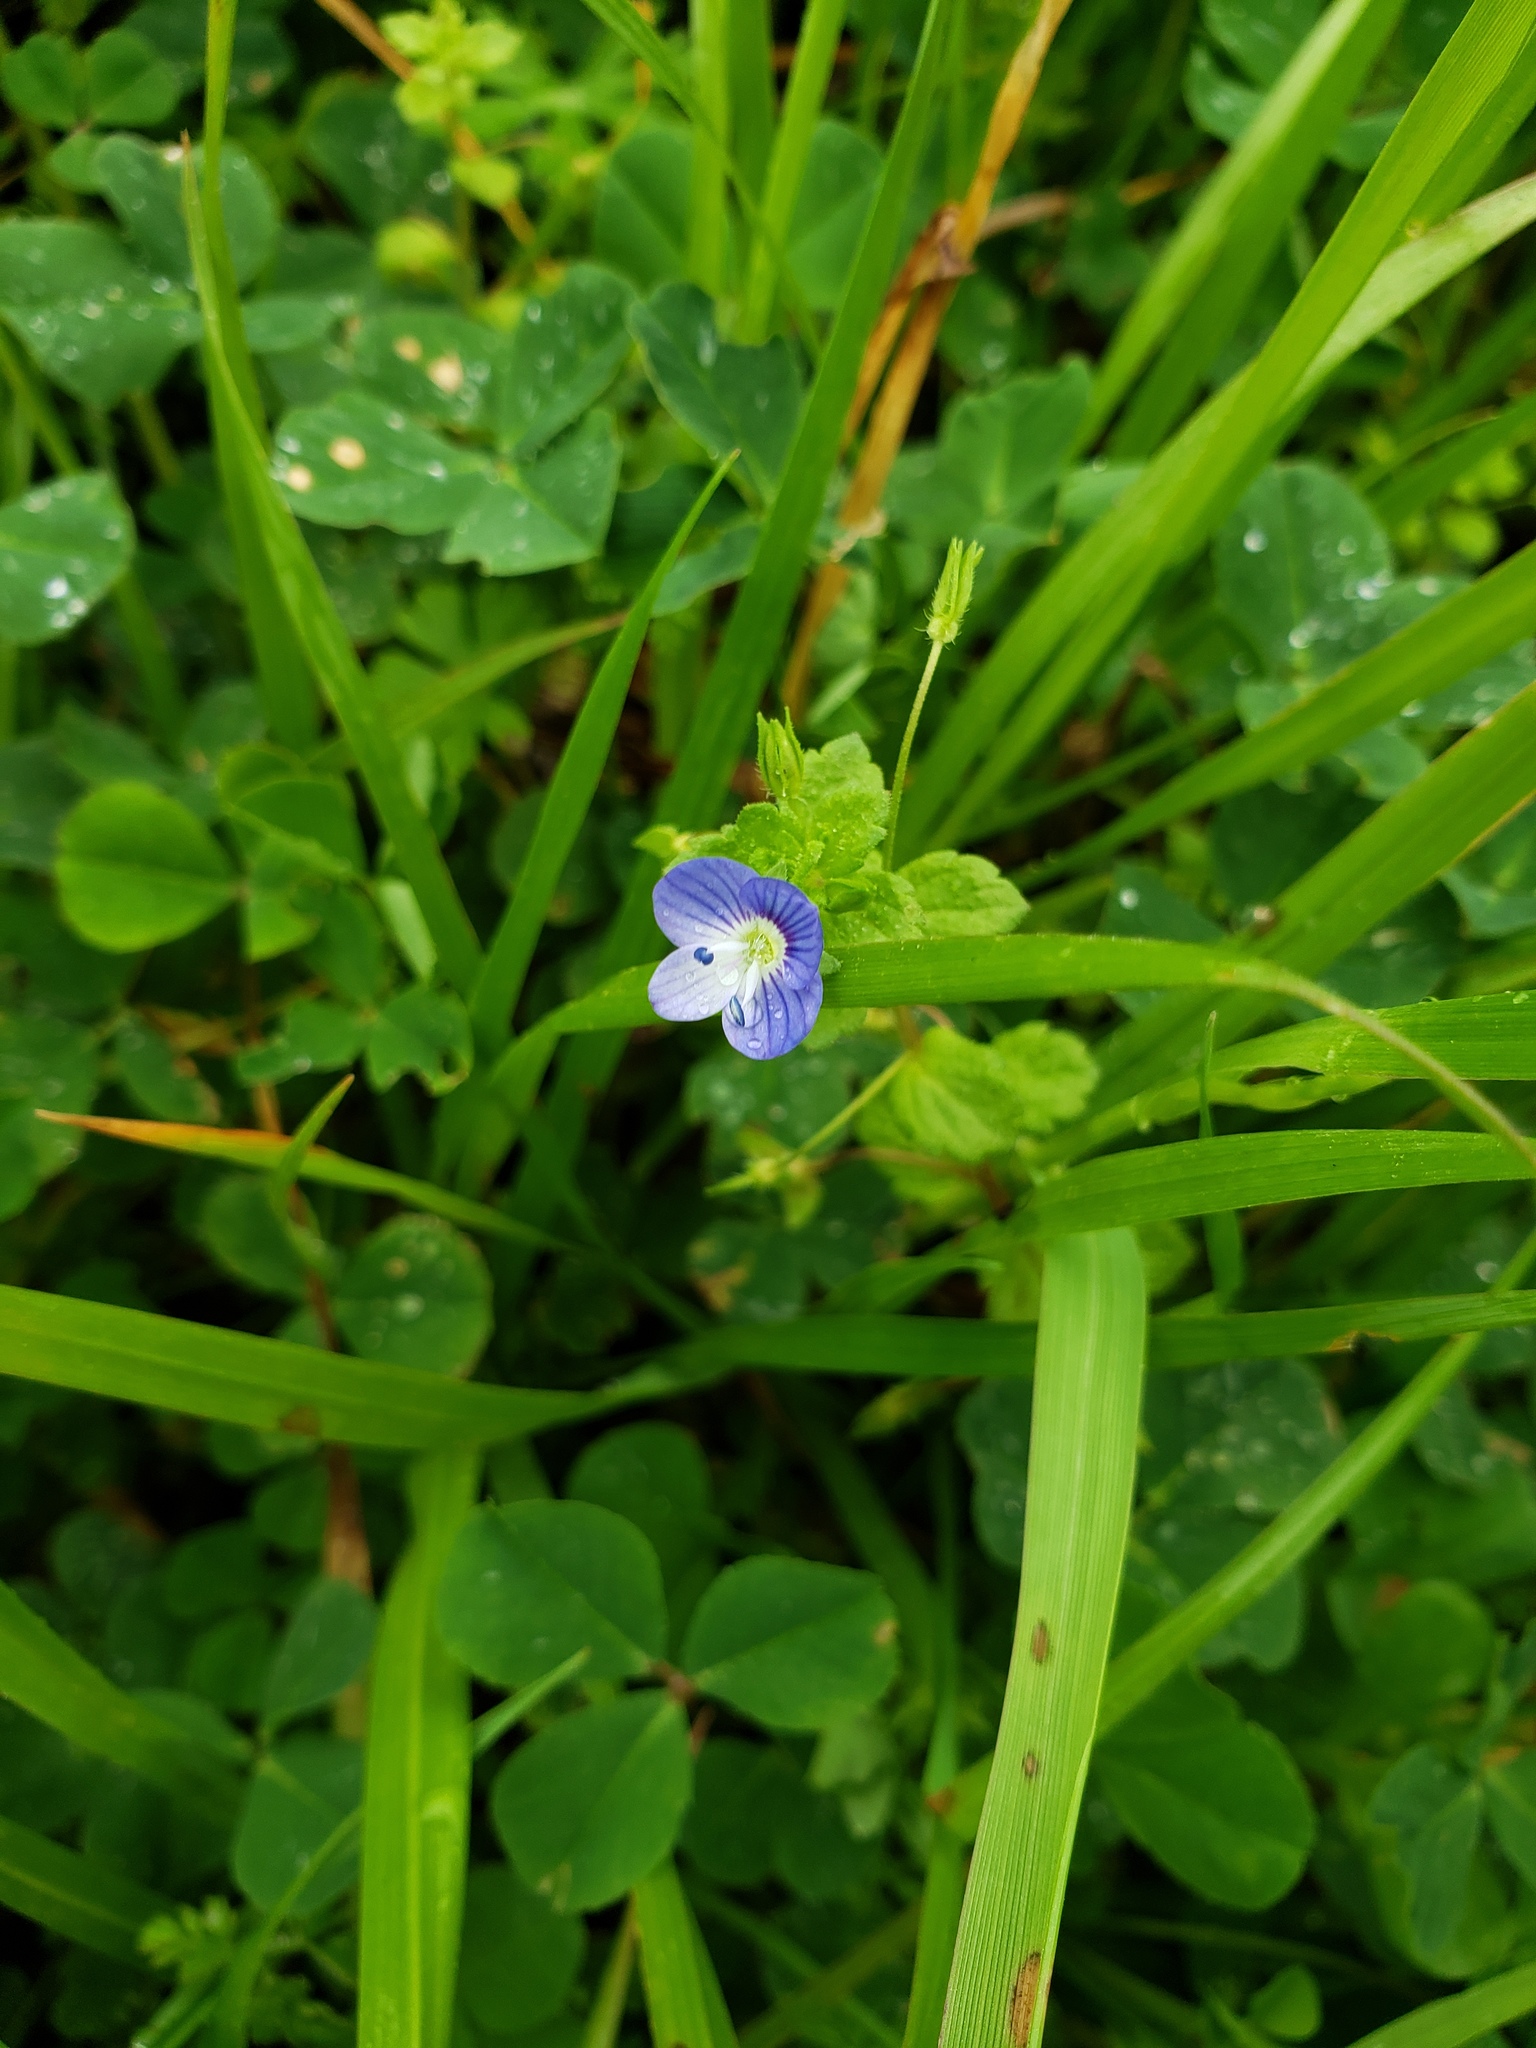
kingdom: Plantae
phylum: Tracheophyta
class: Magnoliopsida
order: Lamiales
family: Plantaginaceae
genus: Veronica
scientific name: Veronica persica
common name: Common field-speedwell
